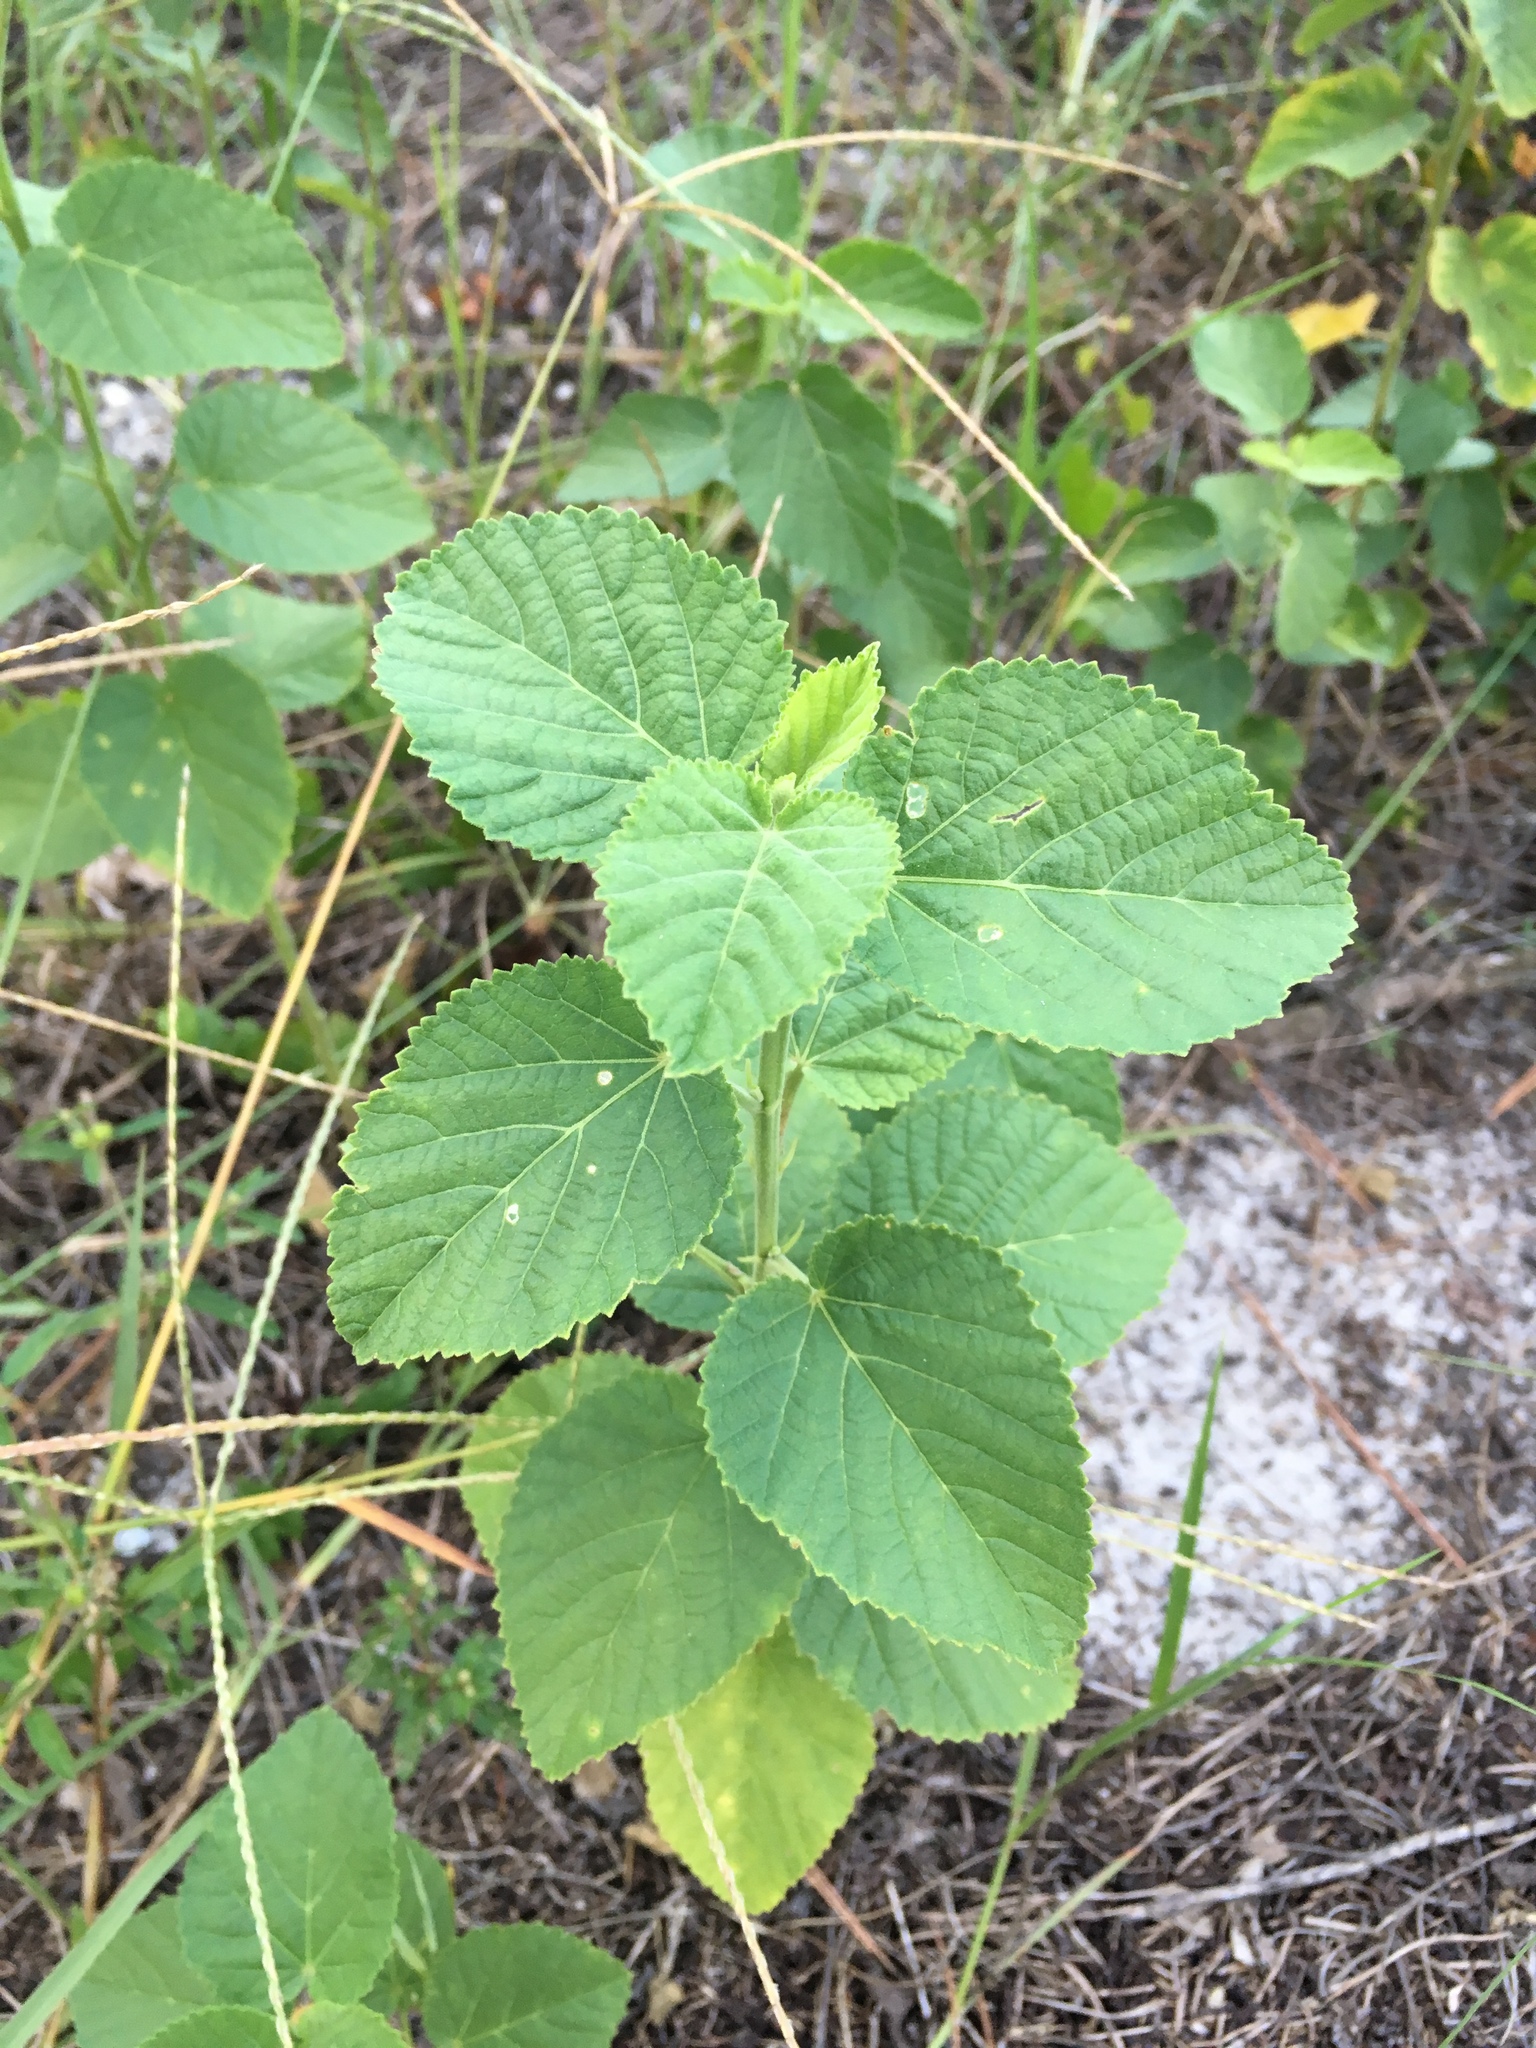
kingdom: Plantae
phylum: Tracheophyta
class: Magnoliopsida
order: Malvales
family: Malvaceae
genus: Sida
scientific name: Sida cordifolia
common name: Ilima
